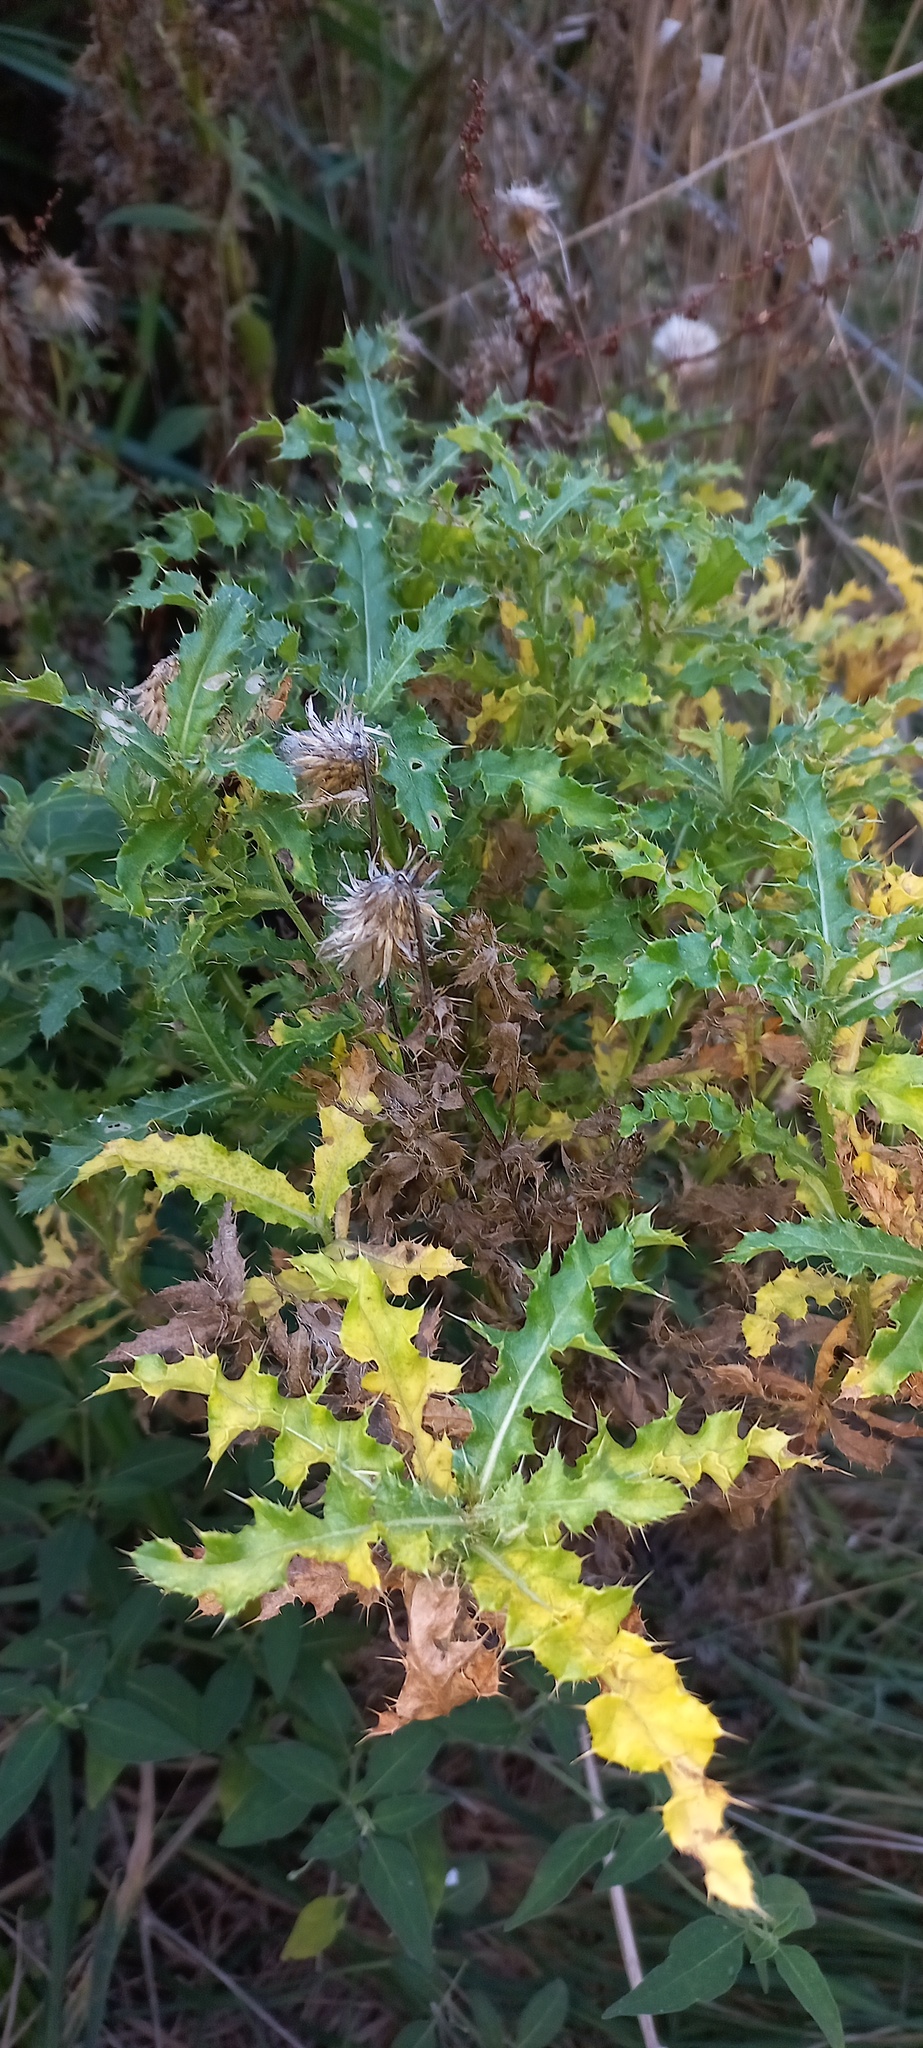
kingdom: Plantae
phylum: Tracheophyta
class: Magnoliopsida
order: Asterales
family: Asteraceae
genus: Cirsium
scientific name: Cirsium arvense
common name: Creeping thistle
